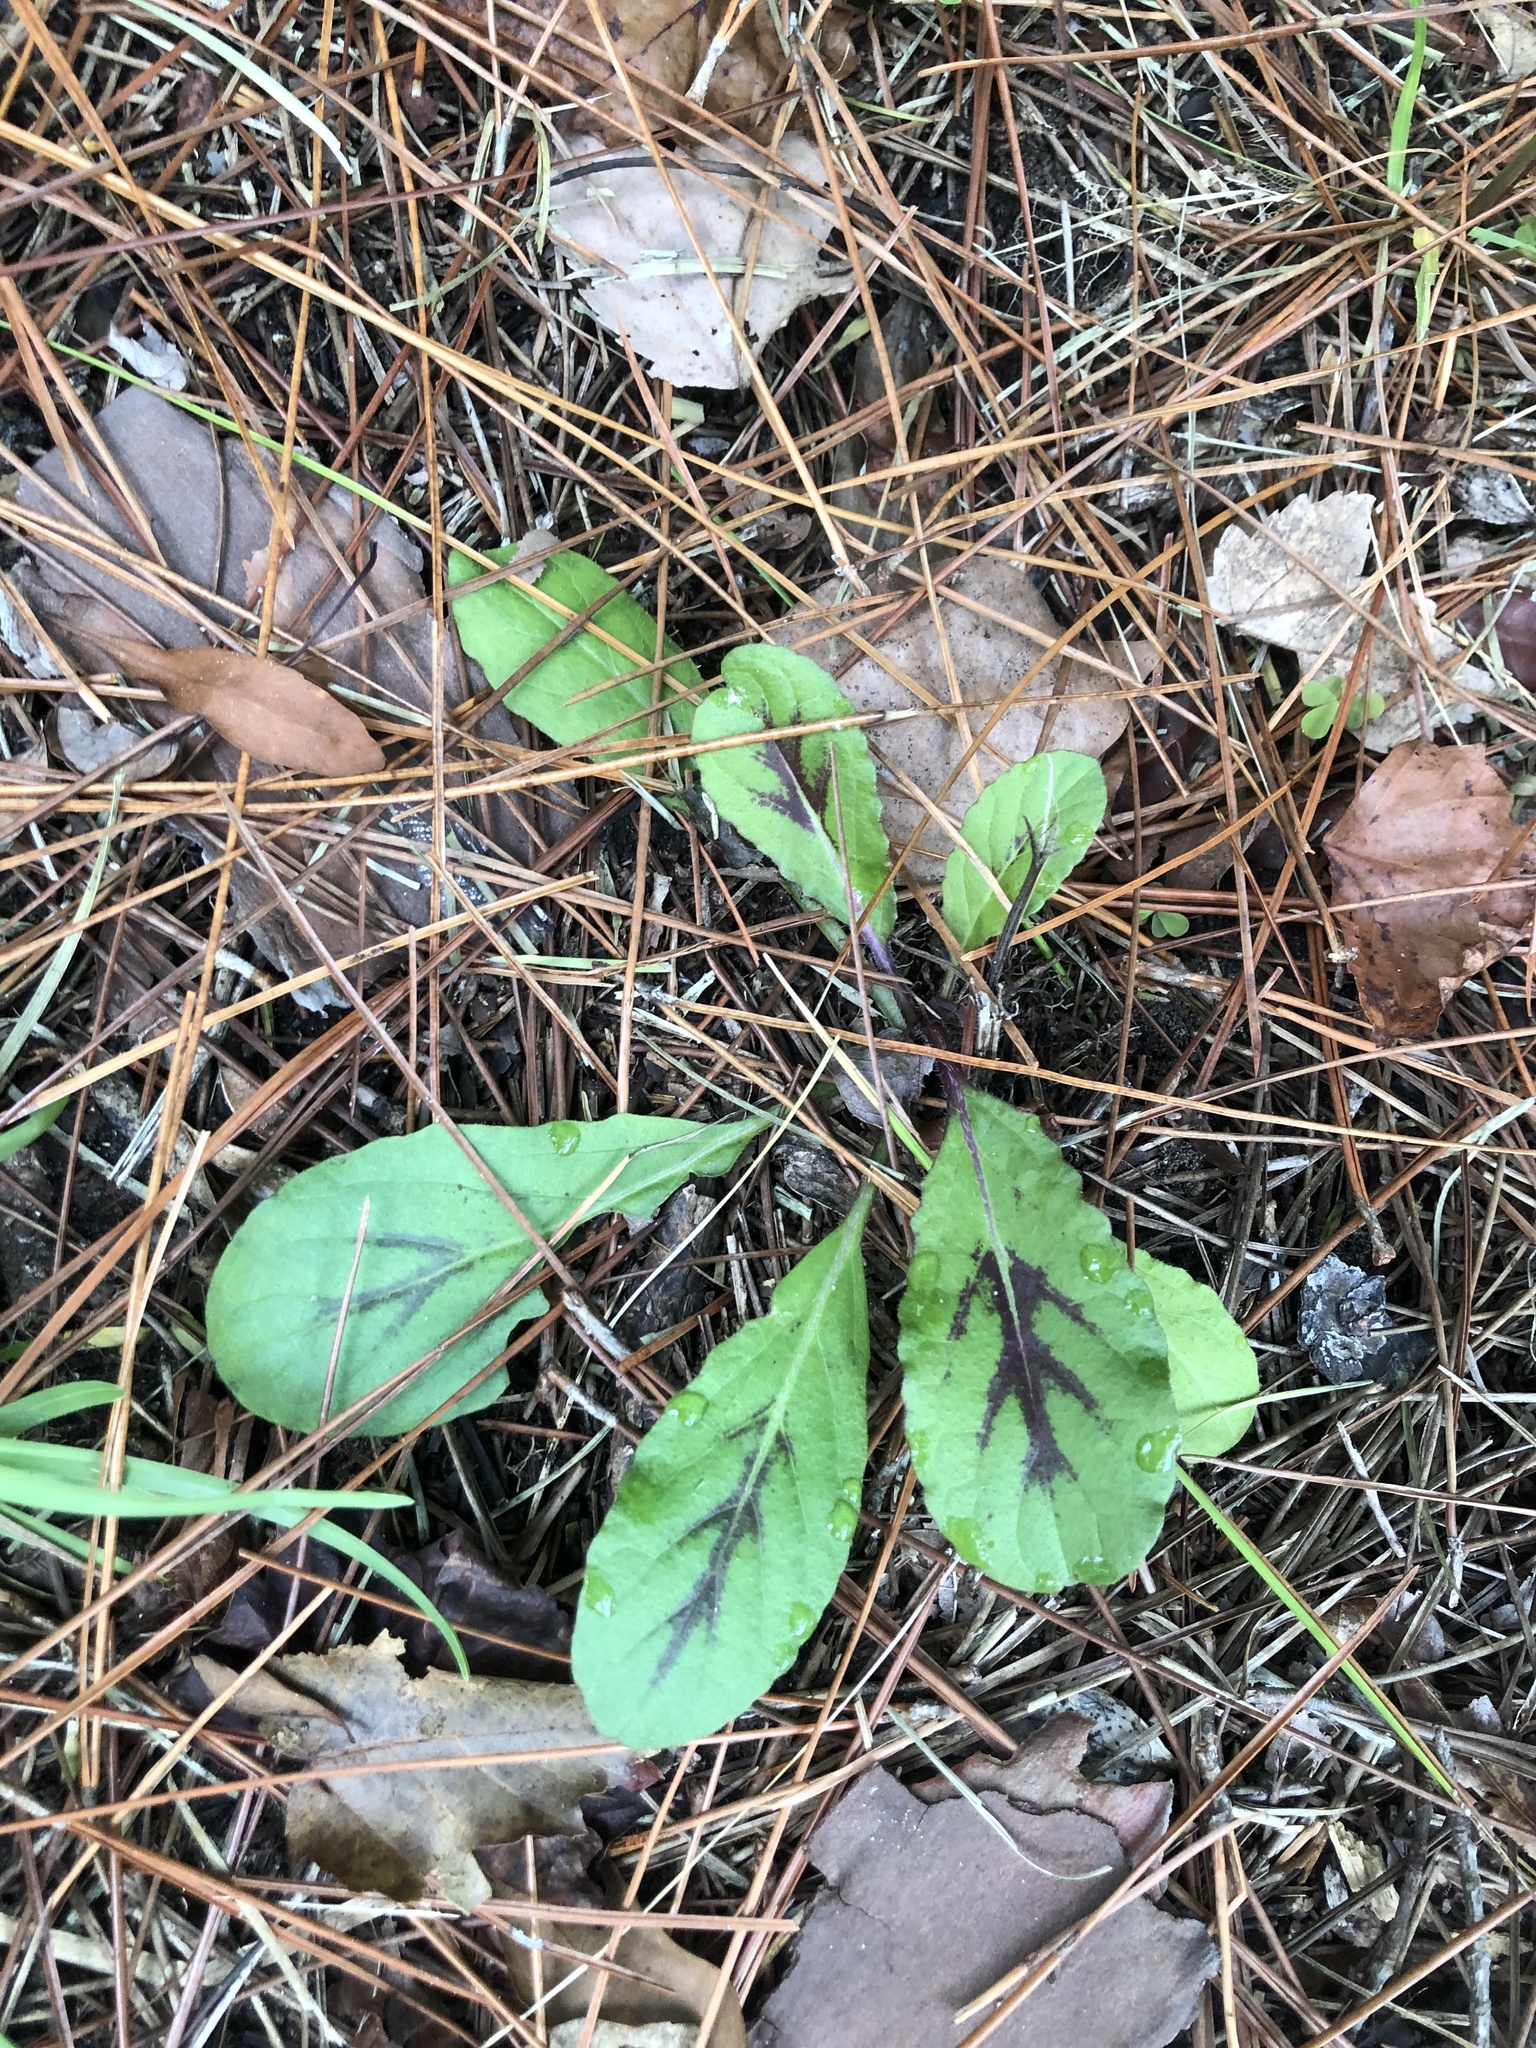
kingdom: Plantae
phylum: Tracheophyta
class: Magnoliopsida
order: Lamiales
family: Lamiaceae
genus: Salvia
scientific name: Salvia lyrata
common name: Cancerweed
